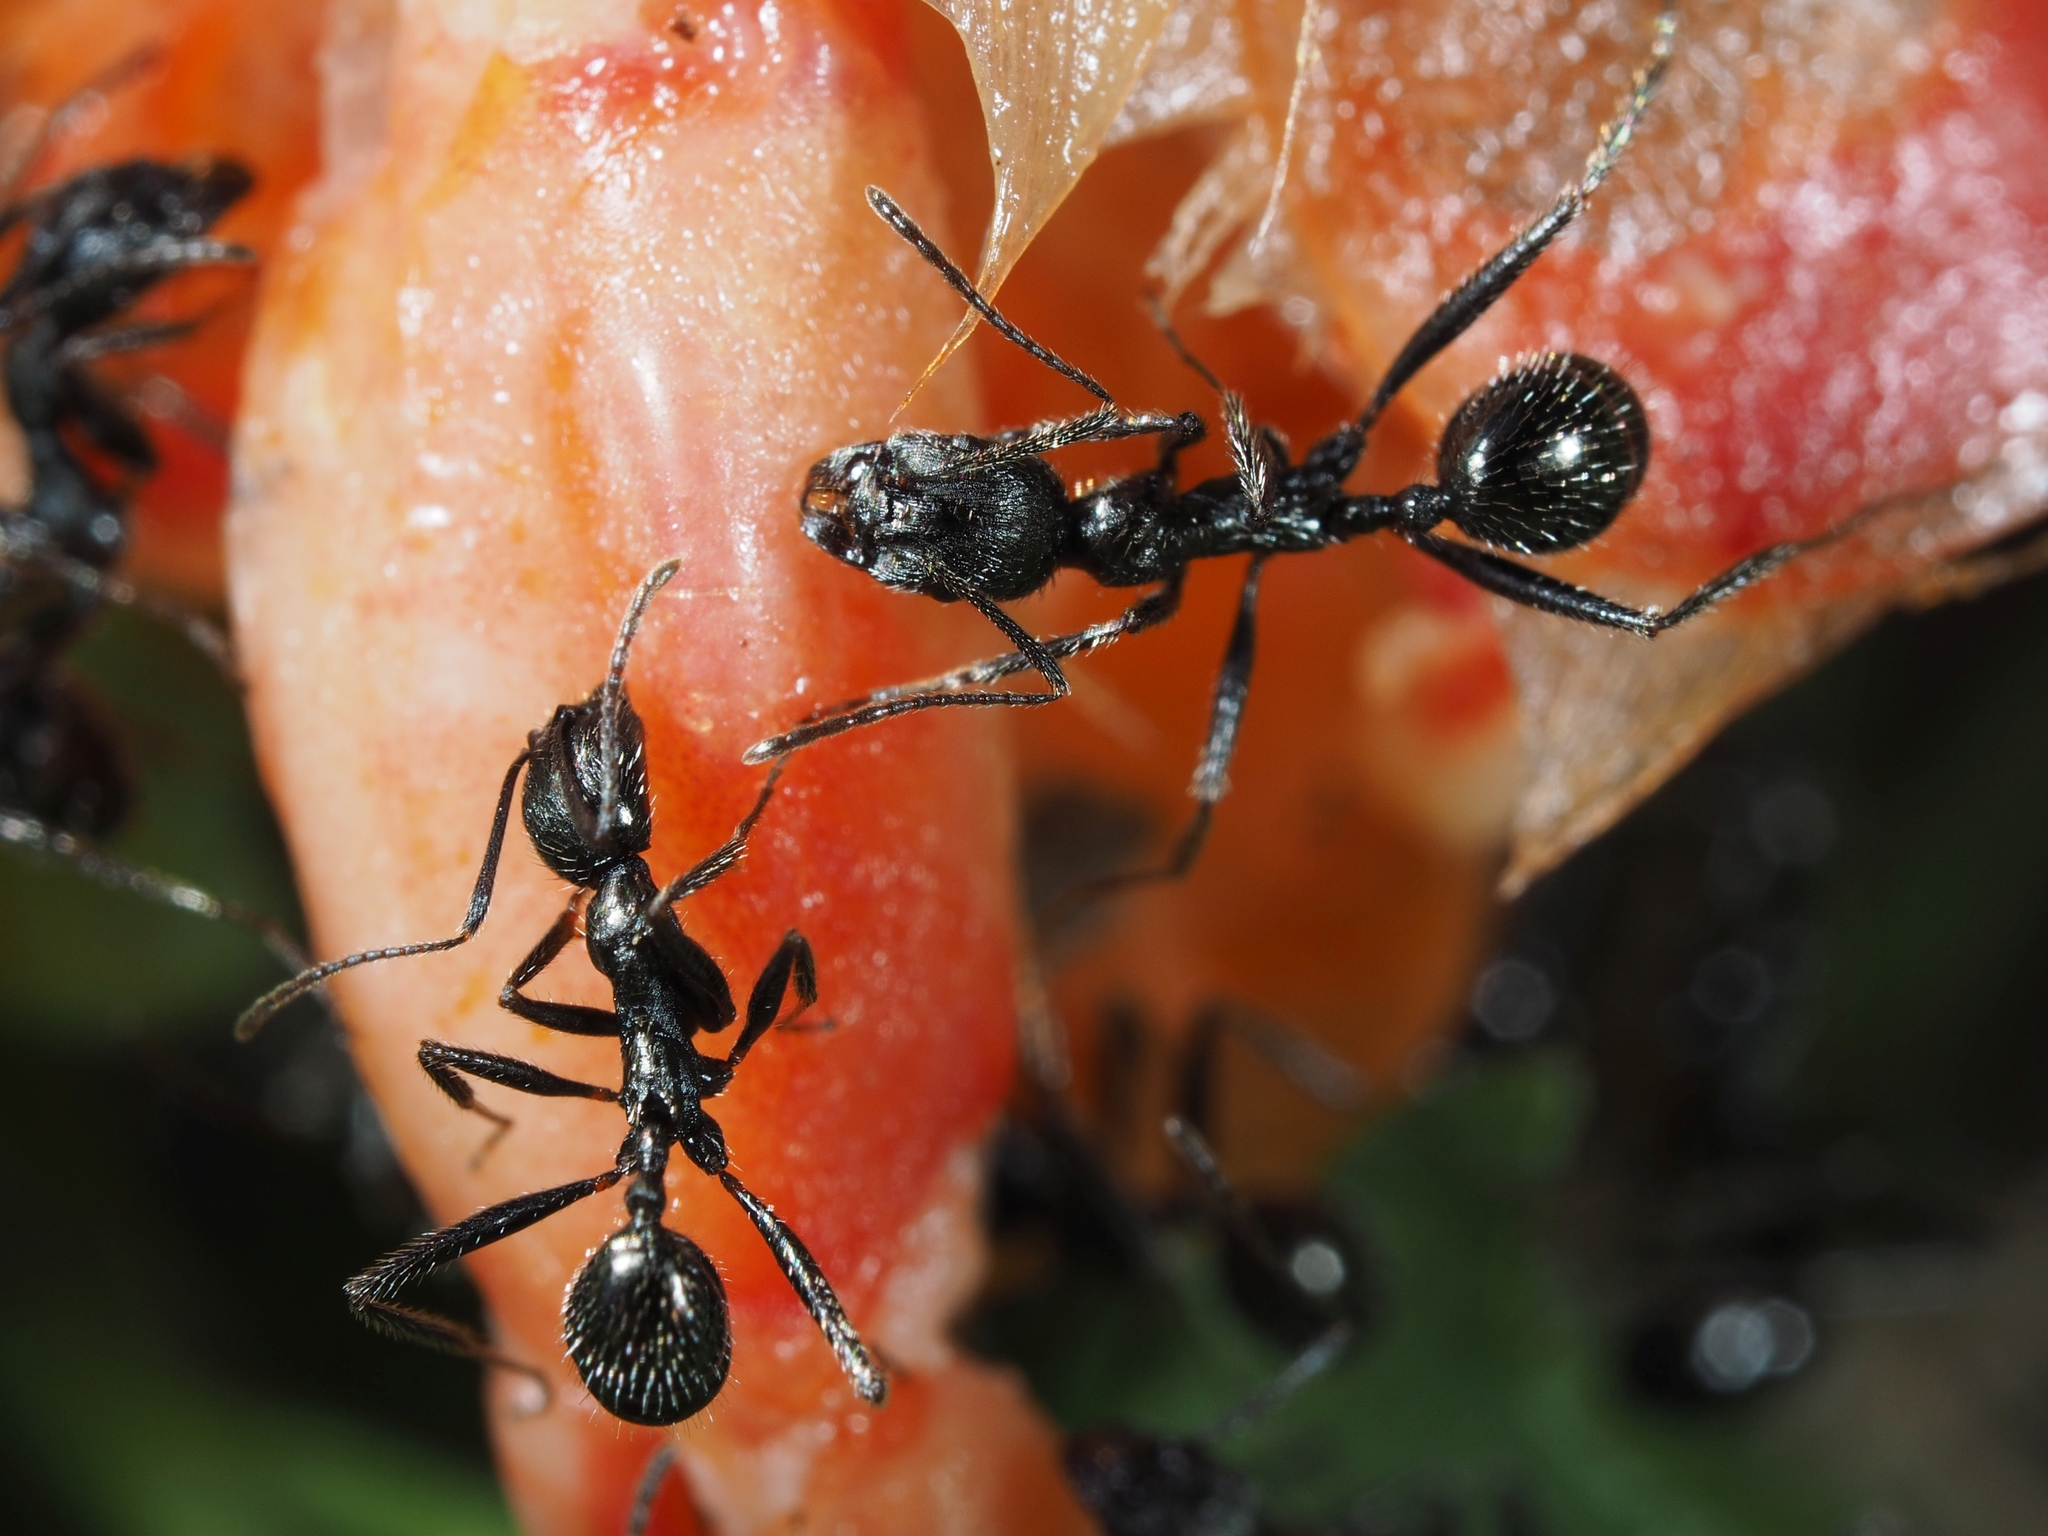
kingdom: Animalia
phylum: Arthropoda
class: Insecta
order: Hymenoptera
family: Formicidae
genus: Aphaenogaster
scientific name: Aphaenogaster semipolita
